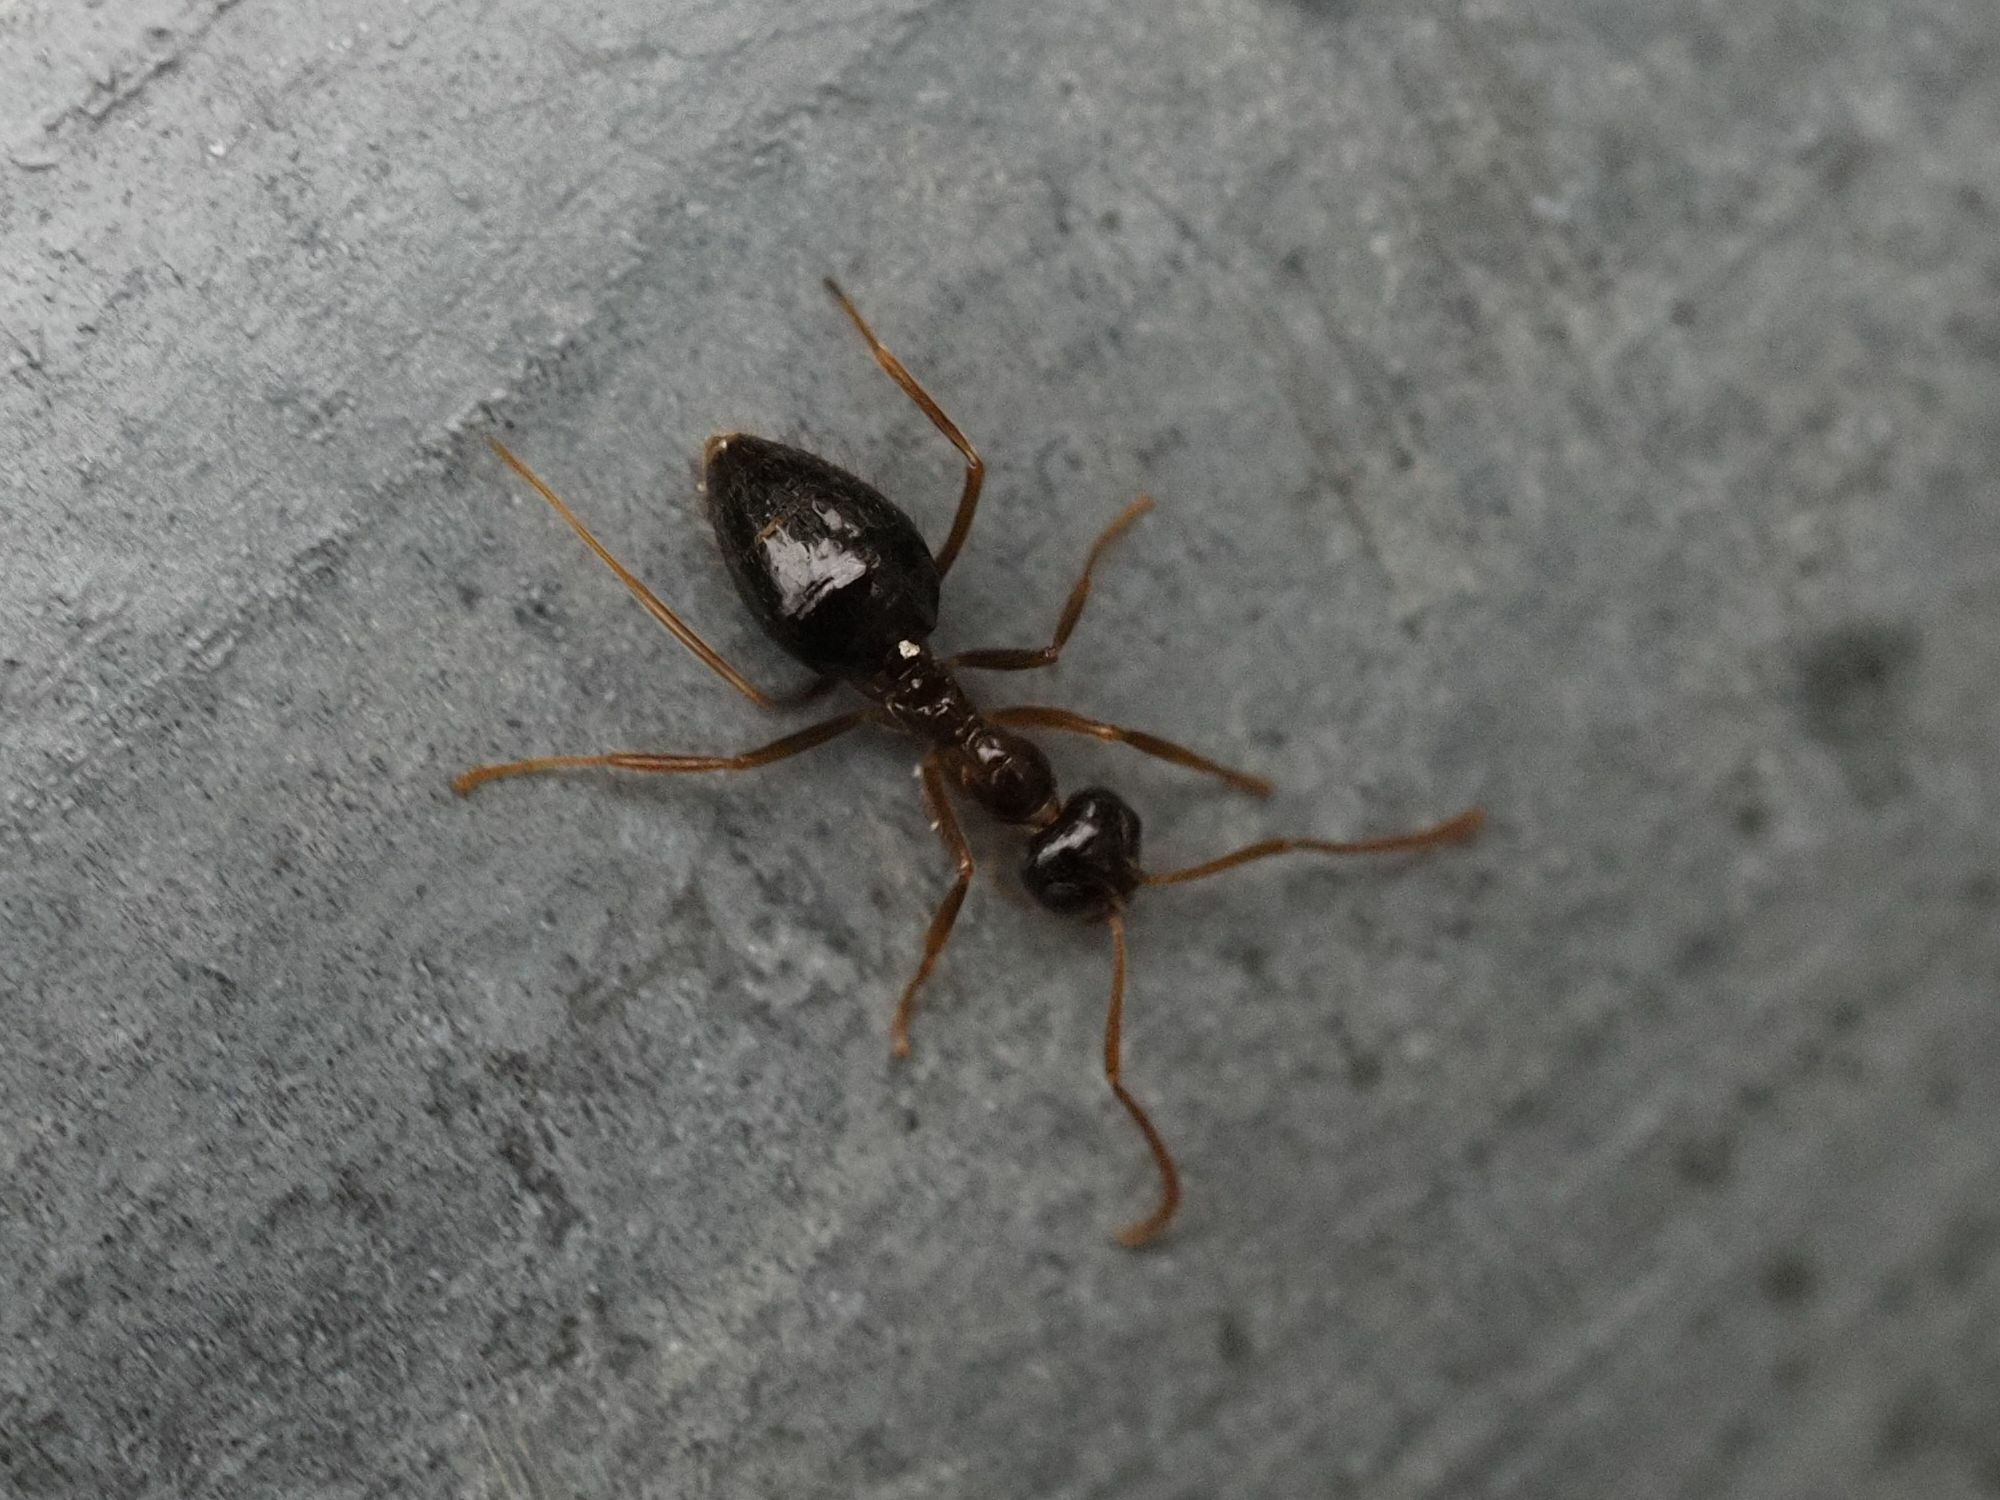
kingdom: Animalia
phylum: Arthropoda
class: Insecta
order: Hymenoptera
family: Formicidae
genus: Prenolepis
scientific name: Prenolepis nitens
